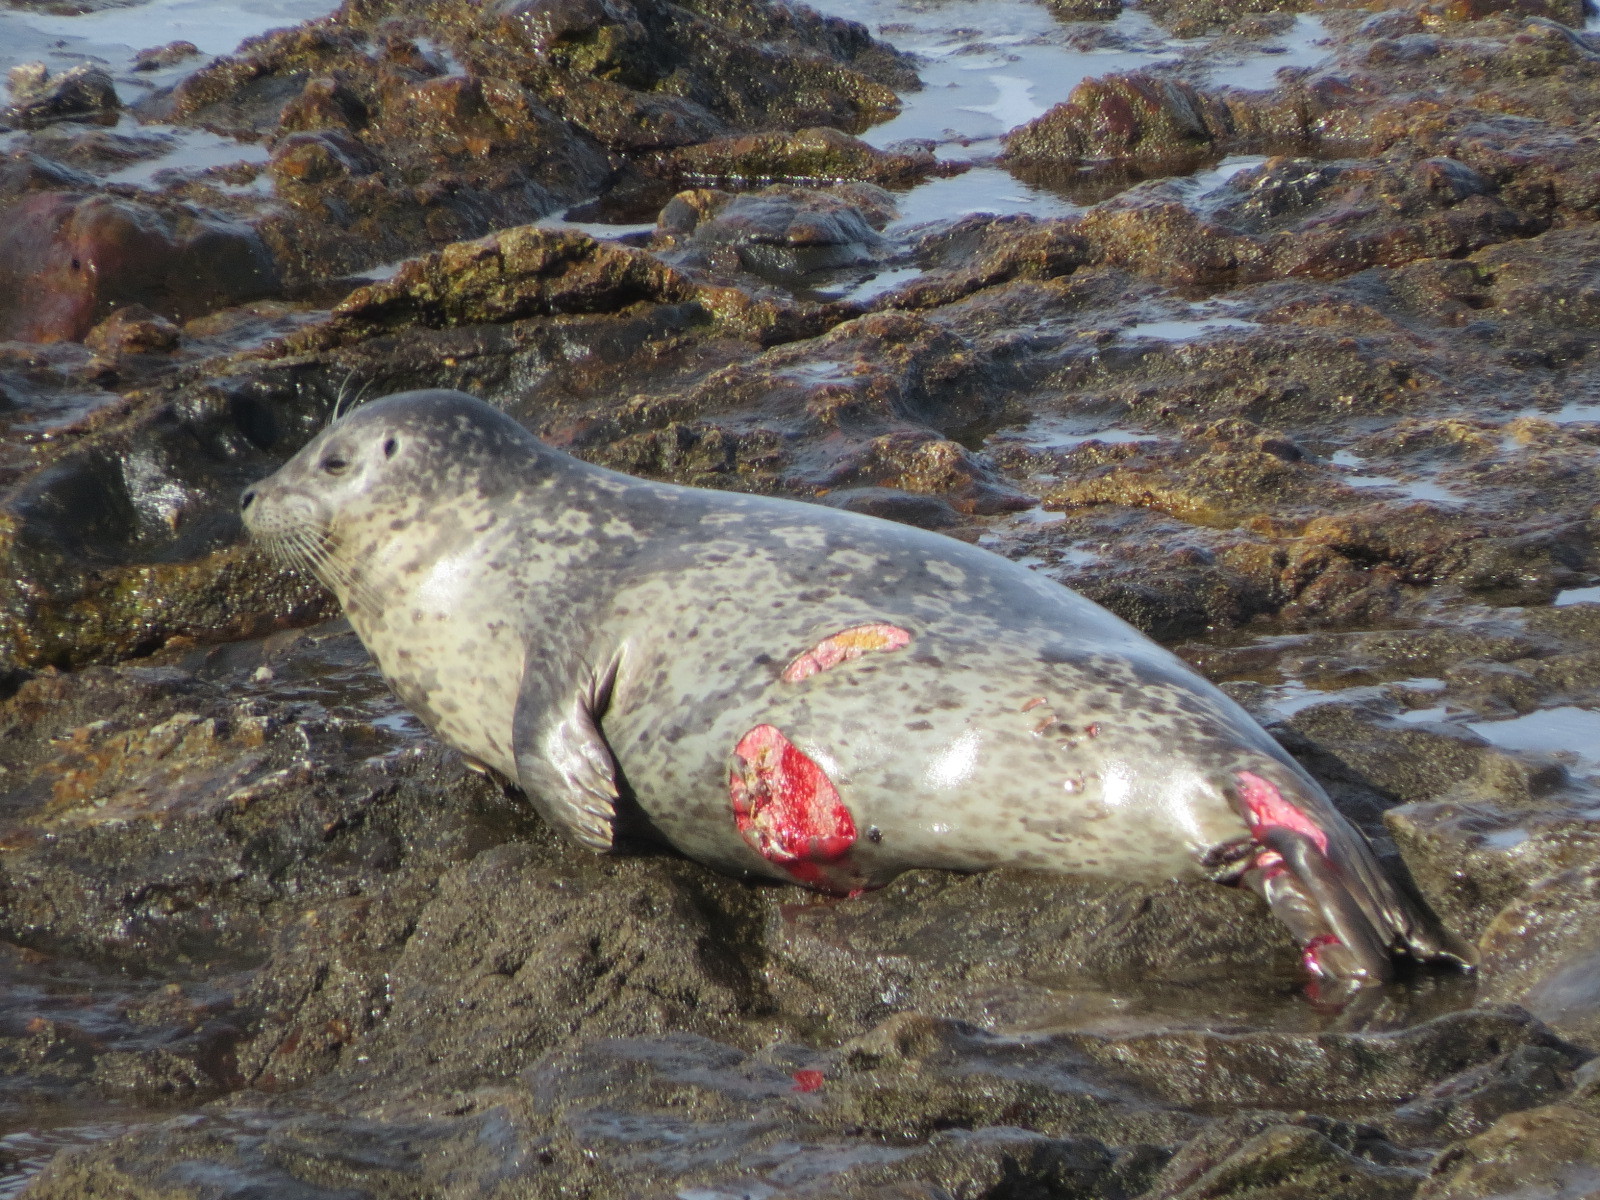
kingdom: Animalia
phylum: Chordata
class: Mammalia
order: Carnivora
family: Phocidae
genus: Phoca
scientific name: Phoca vitulina
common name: Harbor seal
